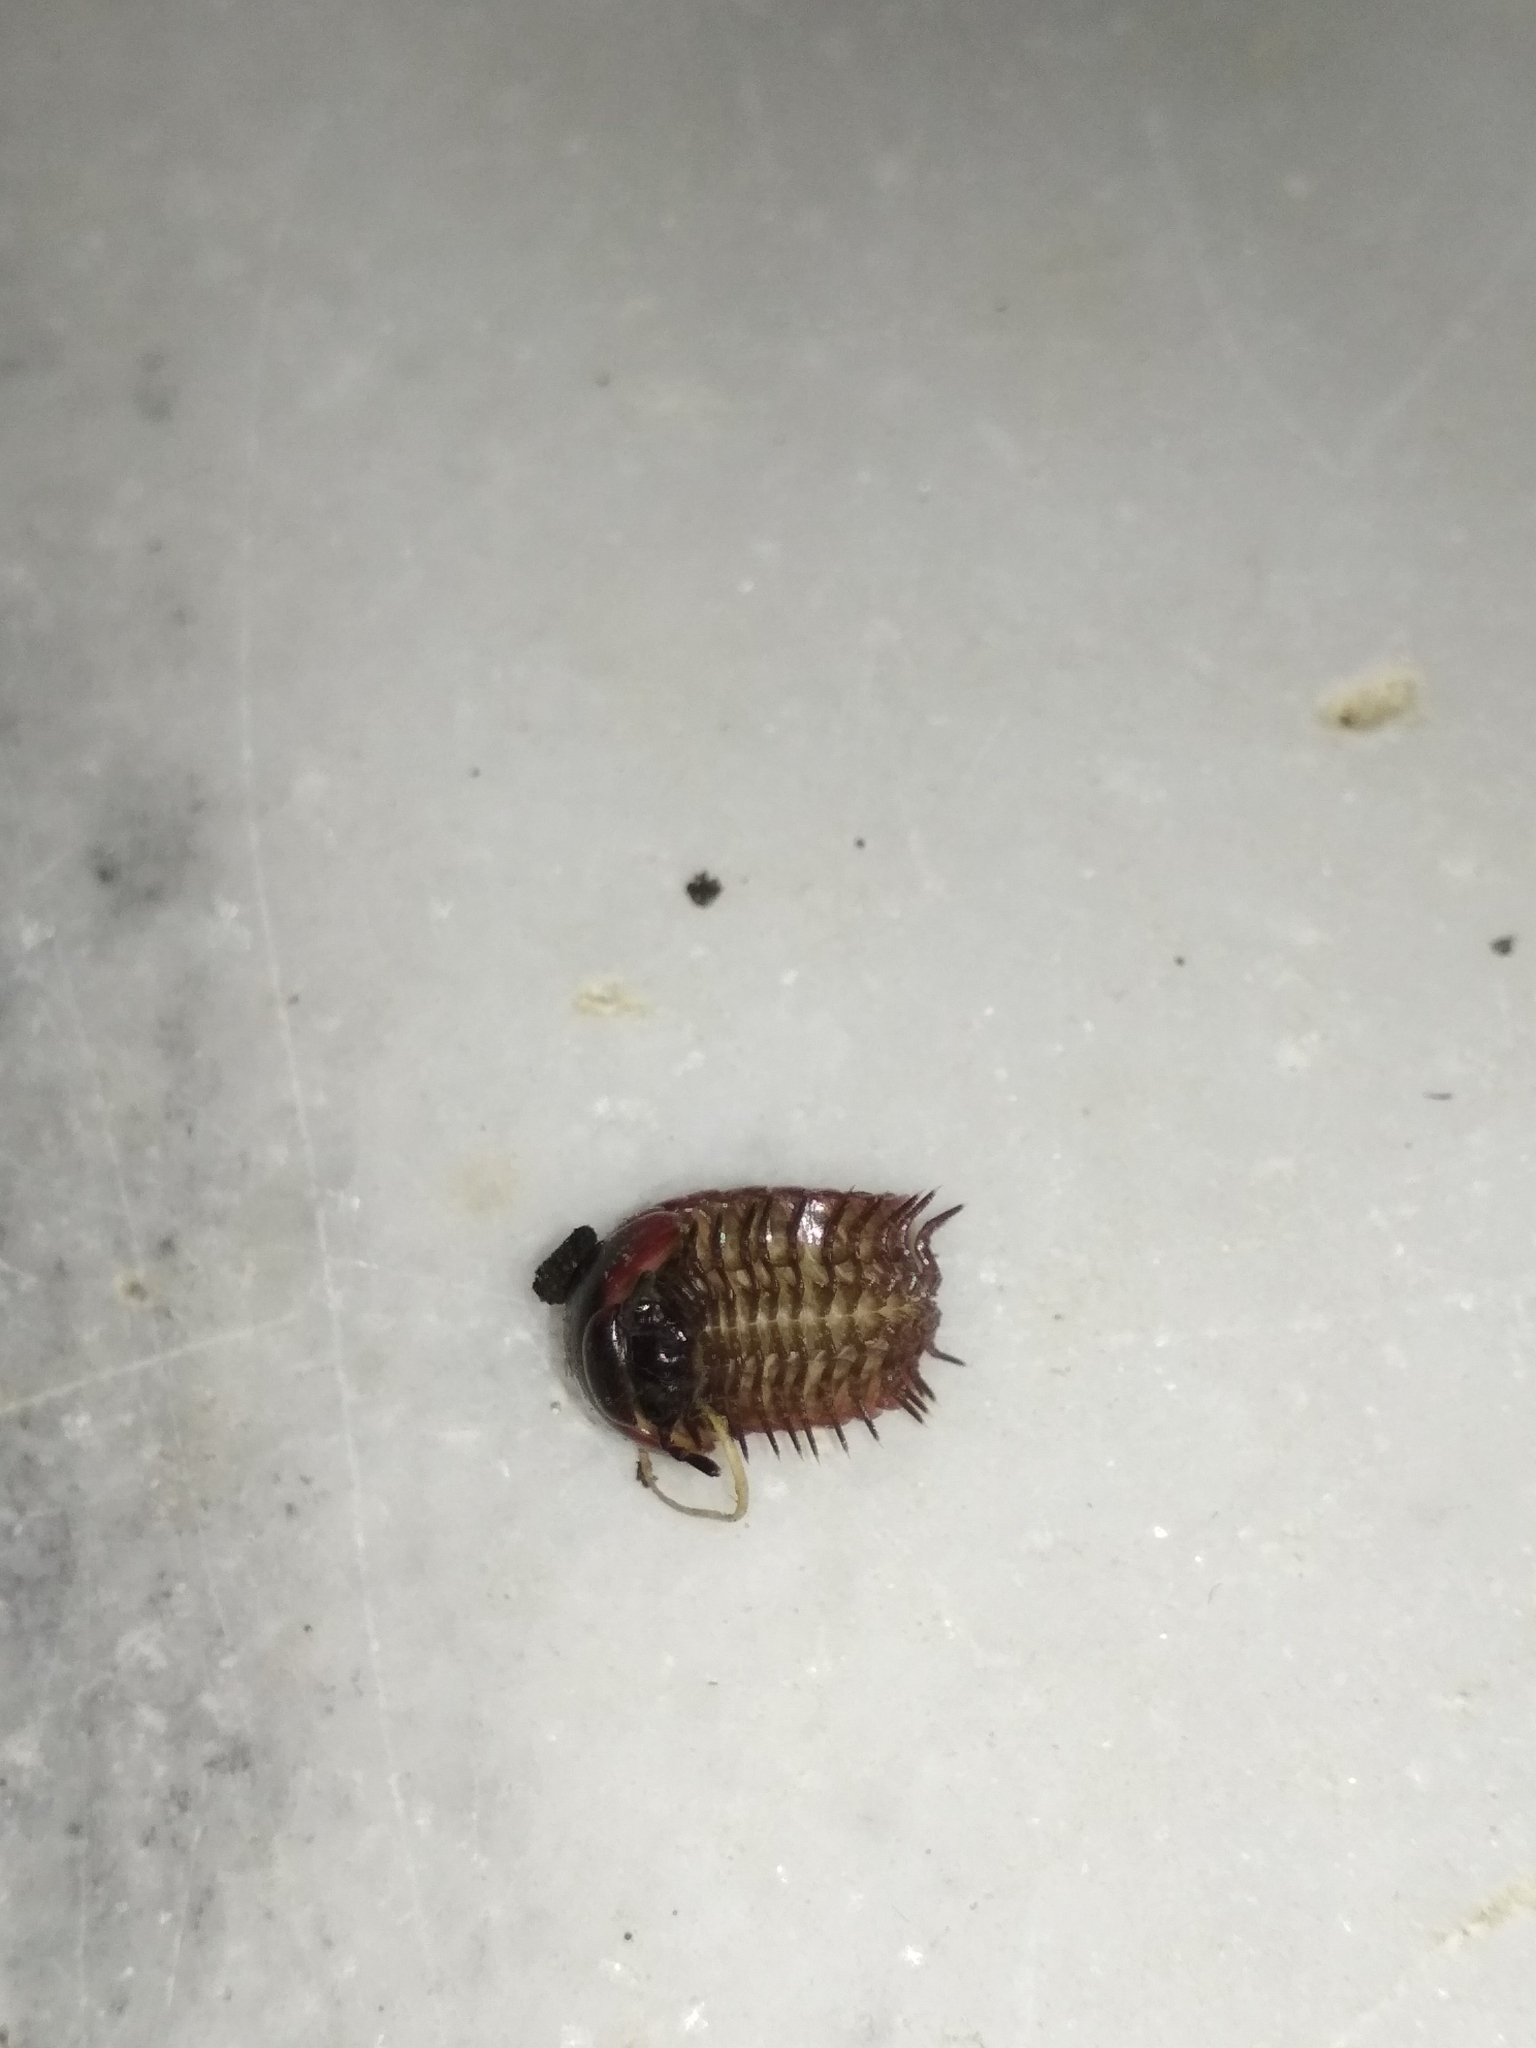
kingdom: Animalia
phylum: Arthropoda
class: Diplopoda
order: Glomerida
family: Glomeridae
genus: Glomeris
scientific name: Glomeris balcanica
